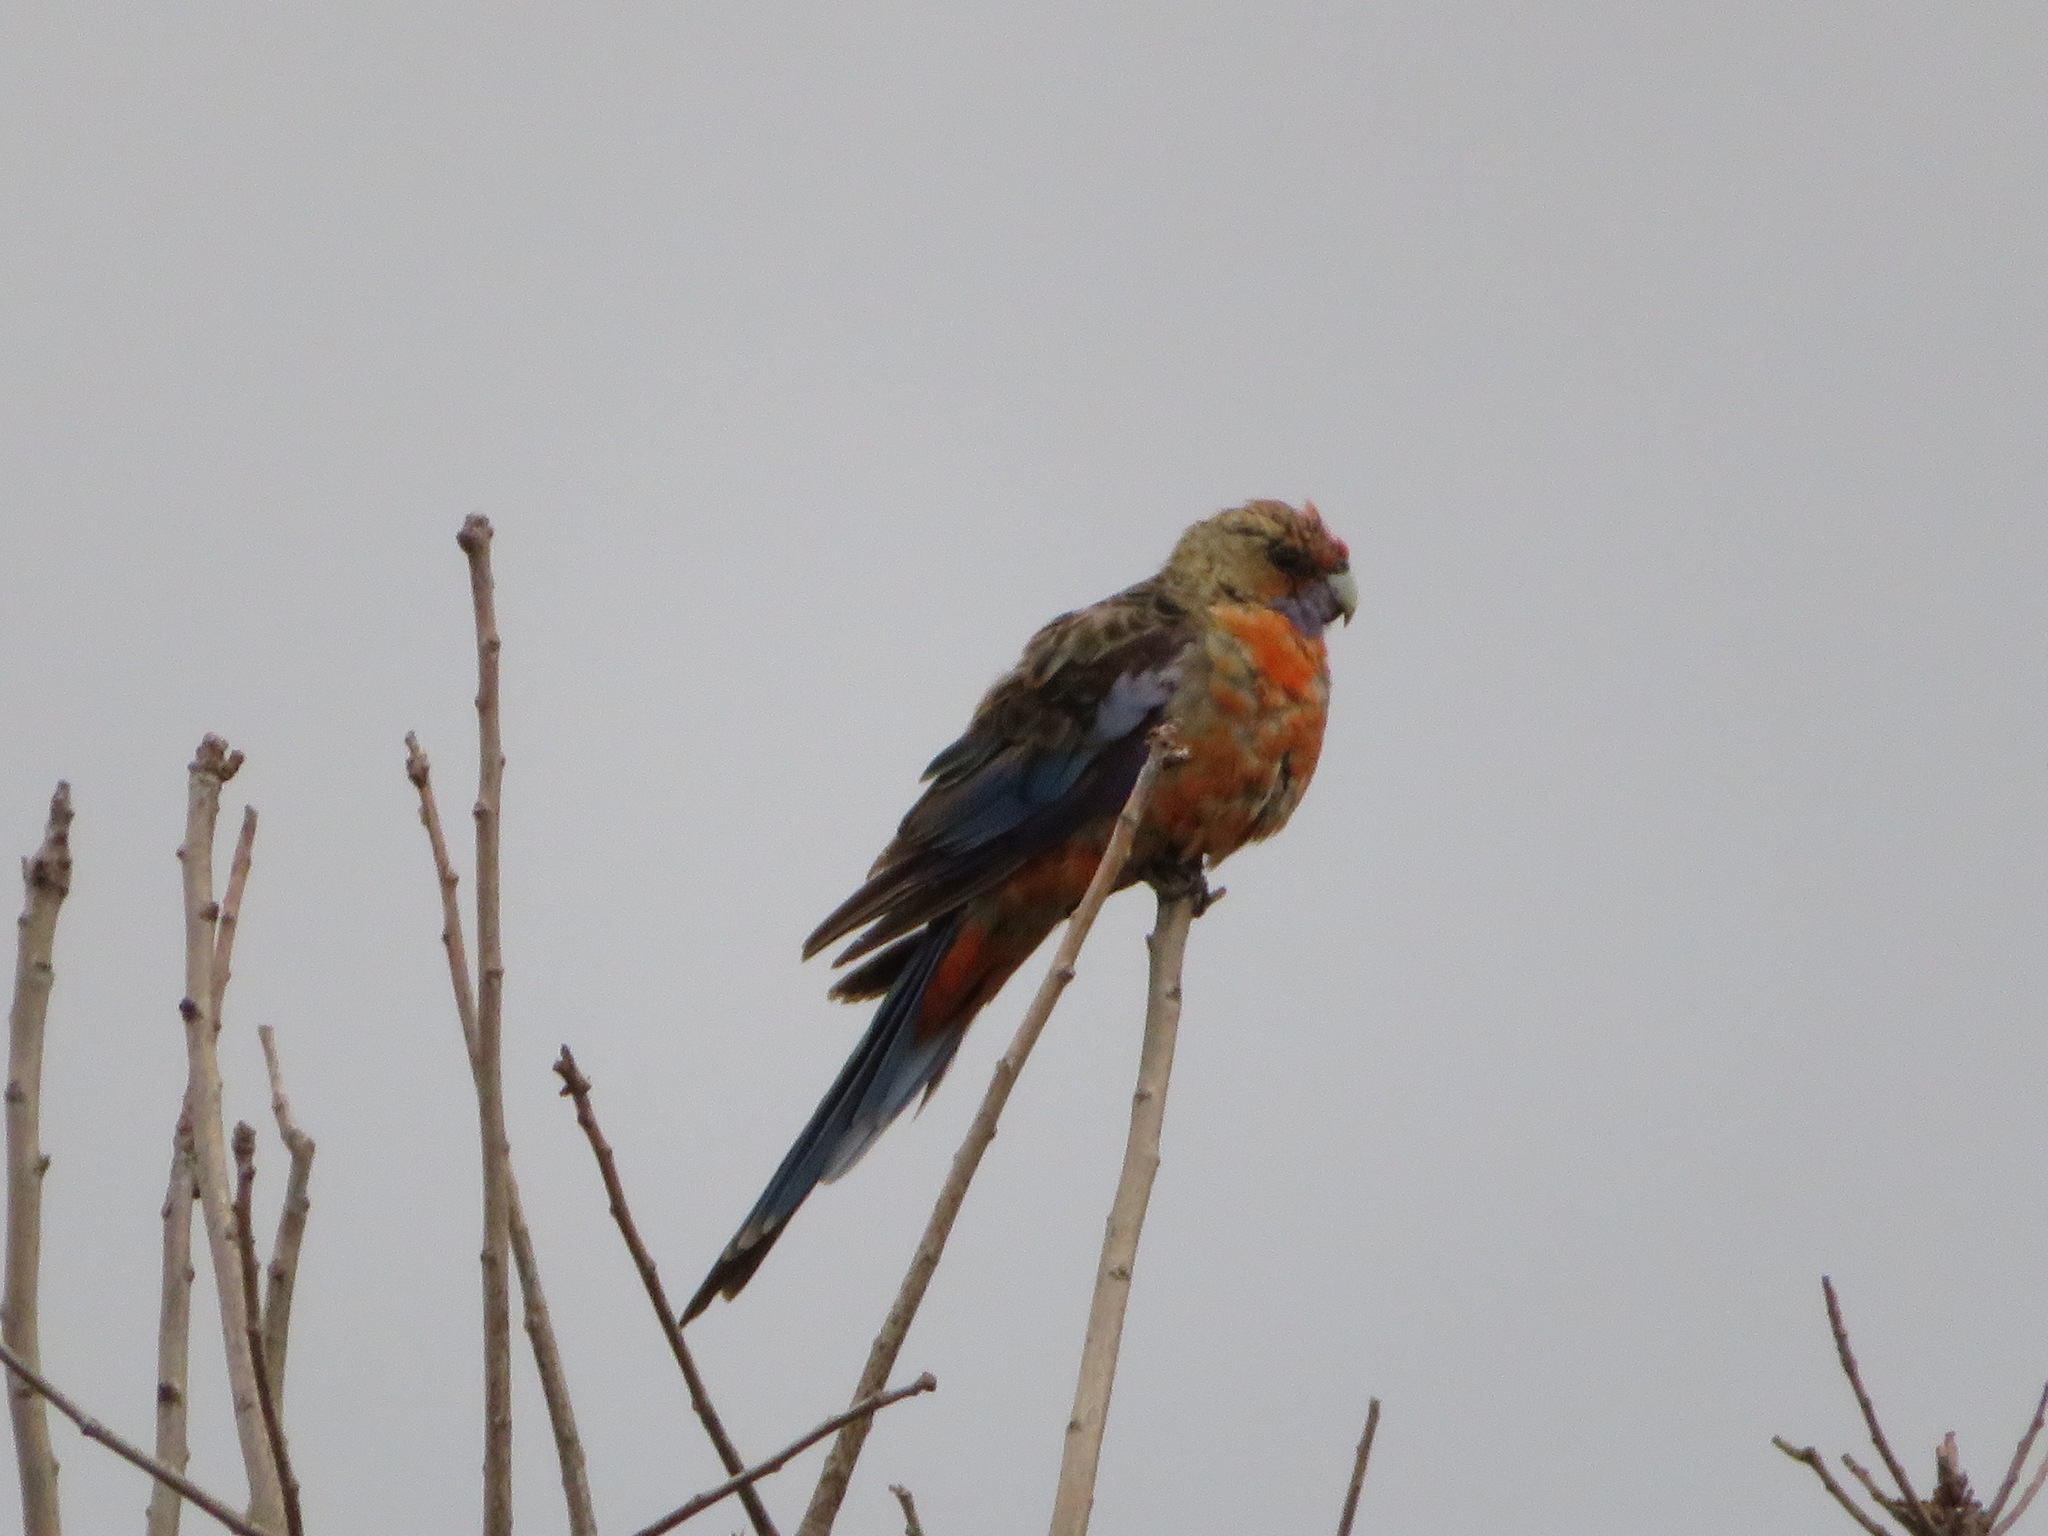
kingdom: Animalia
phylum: Chordata
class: Aves
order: Psittaciformes
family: Psittacidae
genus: Platycercus
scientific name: Platycercus elegans
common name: Crimson rosella
